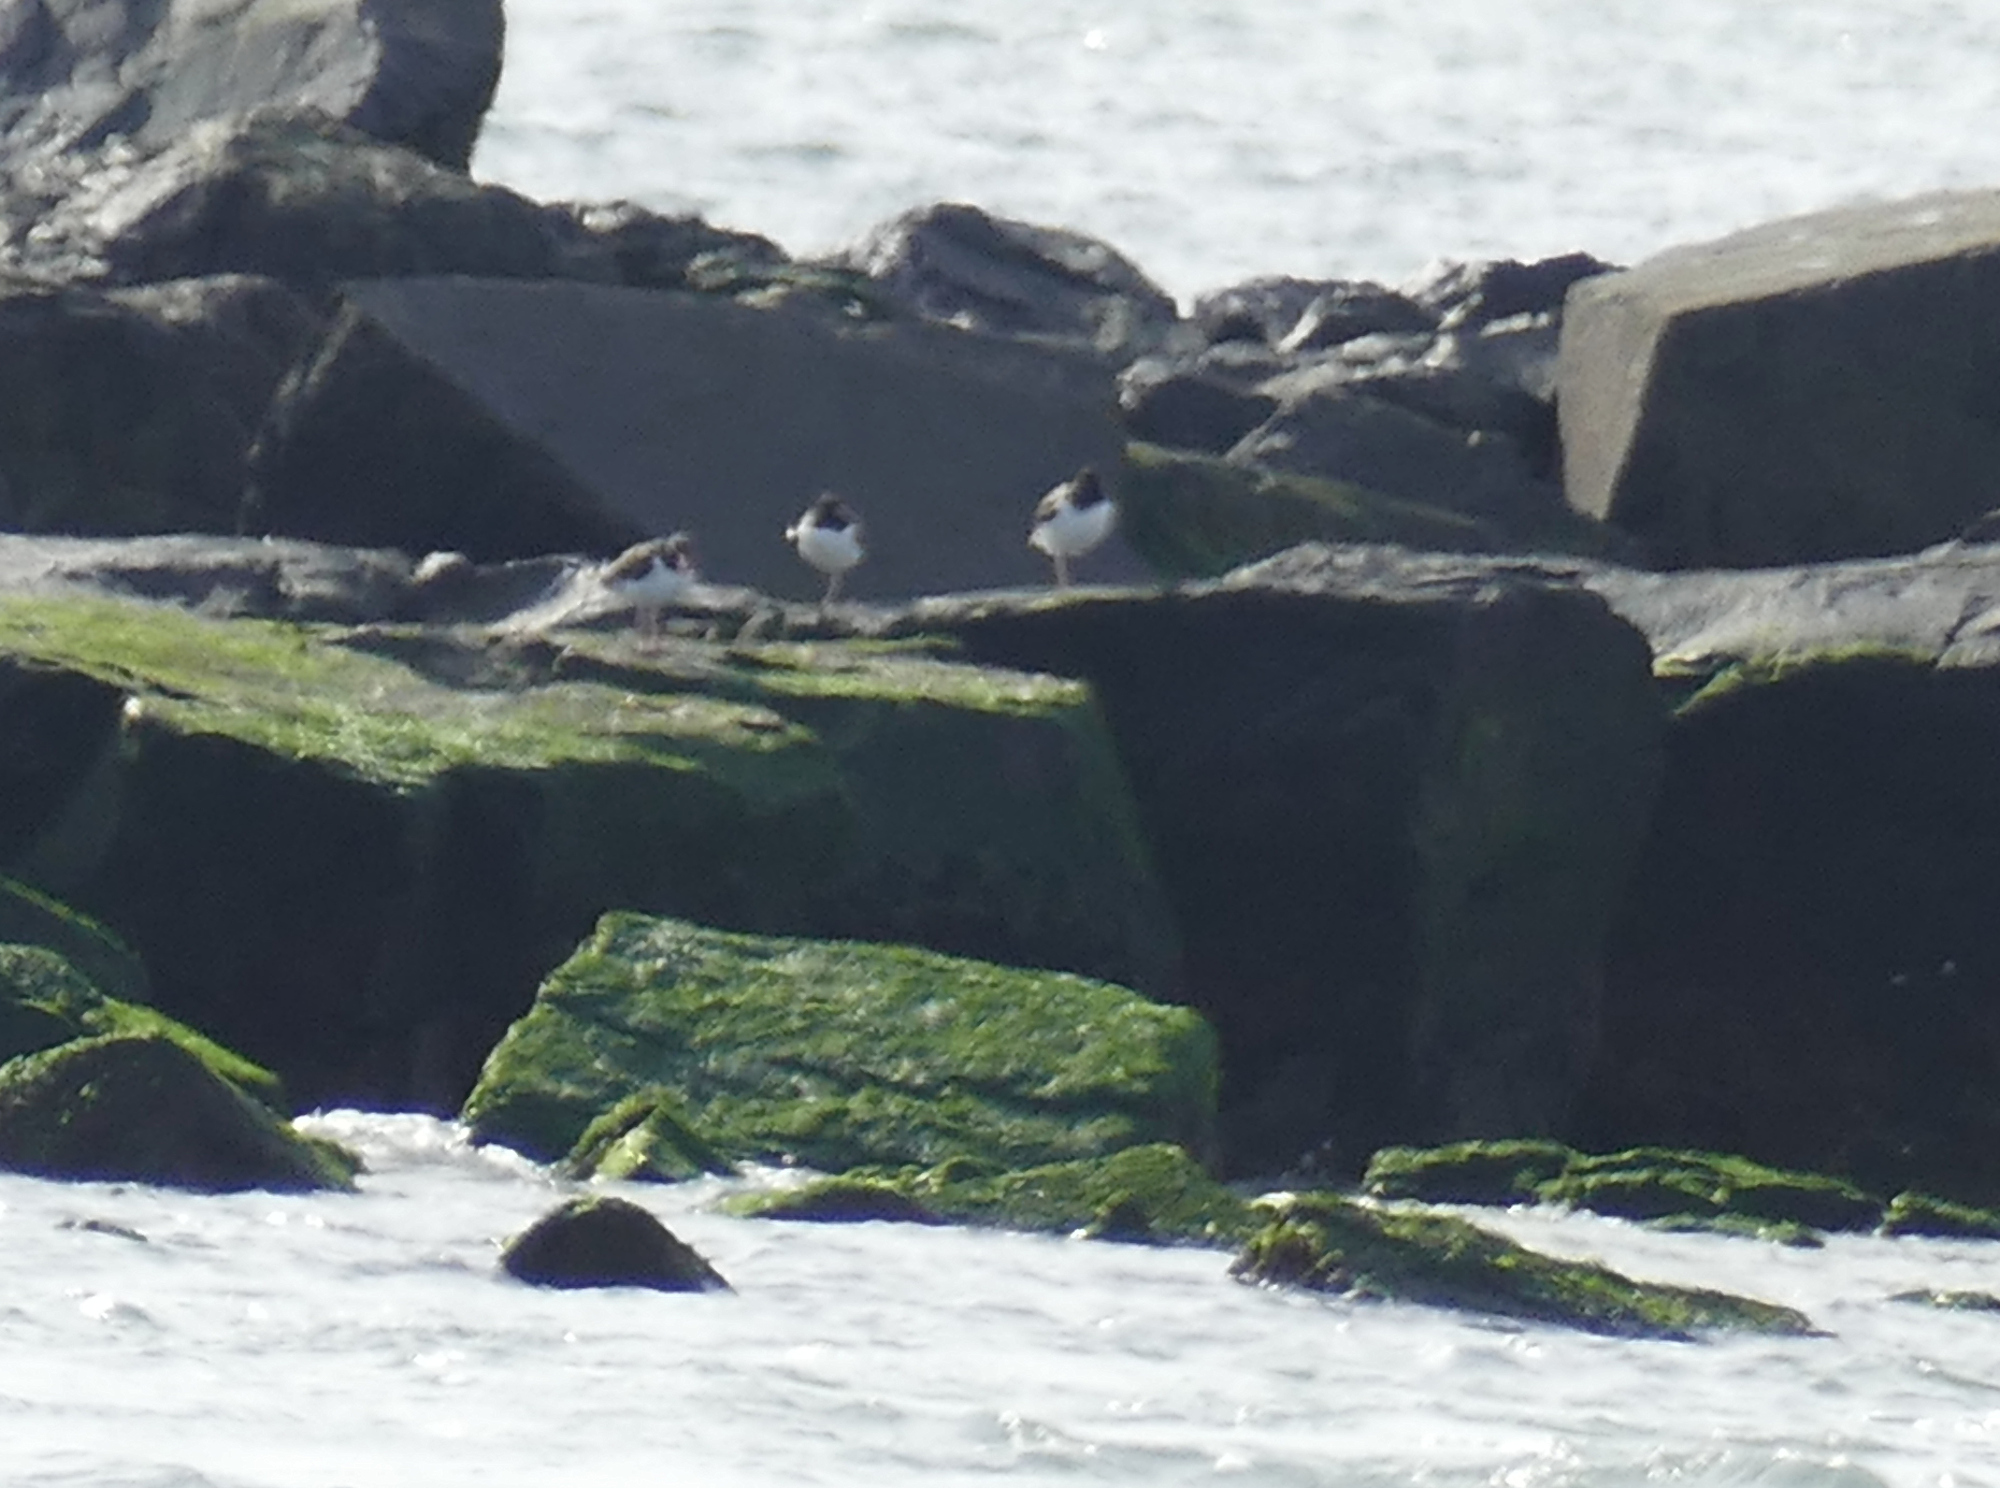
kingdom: Animalia
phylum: Chordata
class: Aves
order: Charadriiformes
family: Haematopodidae
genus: Haematopus
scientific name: Haematopus palliatus
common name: American oystercatcher
